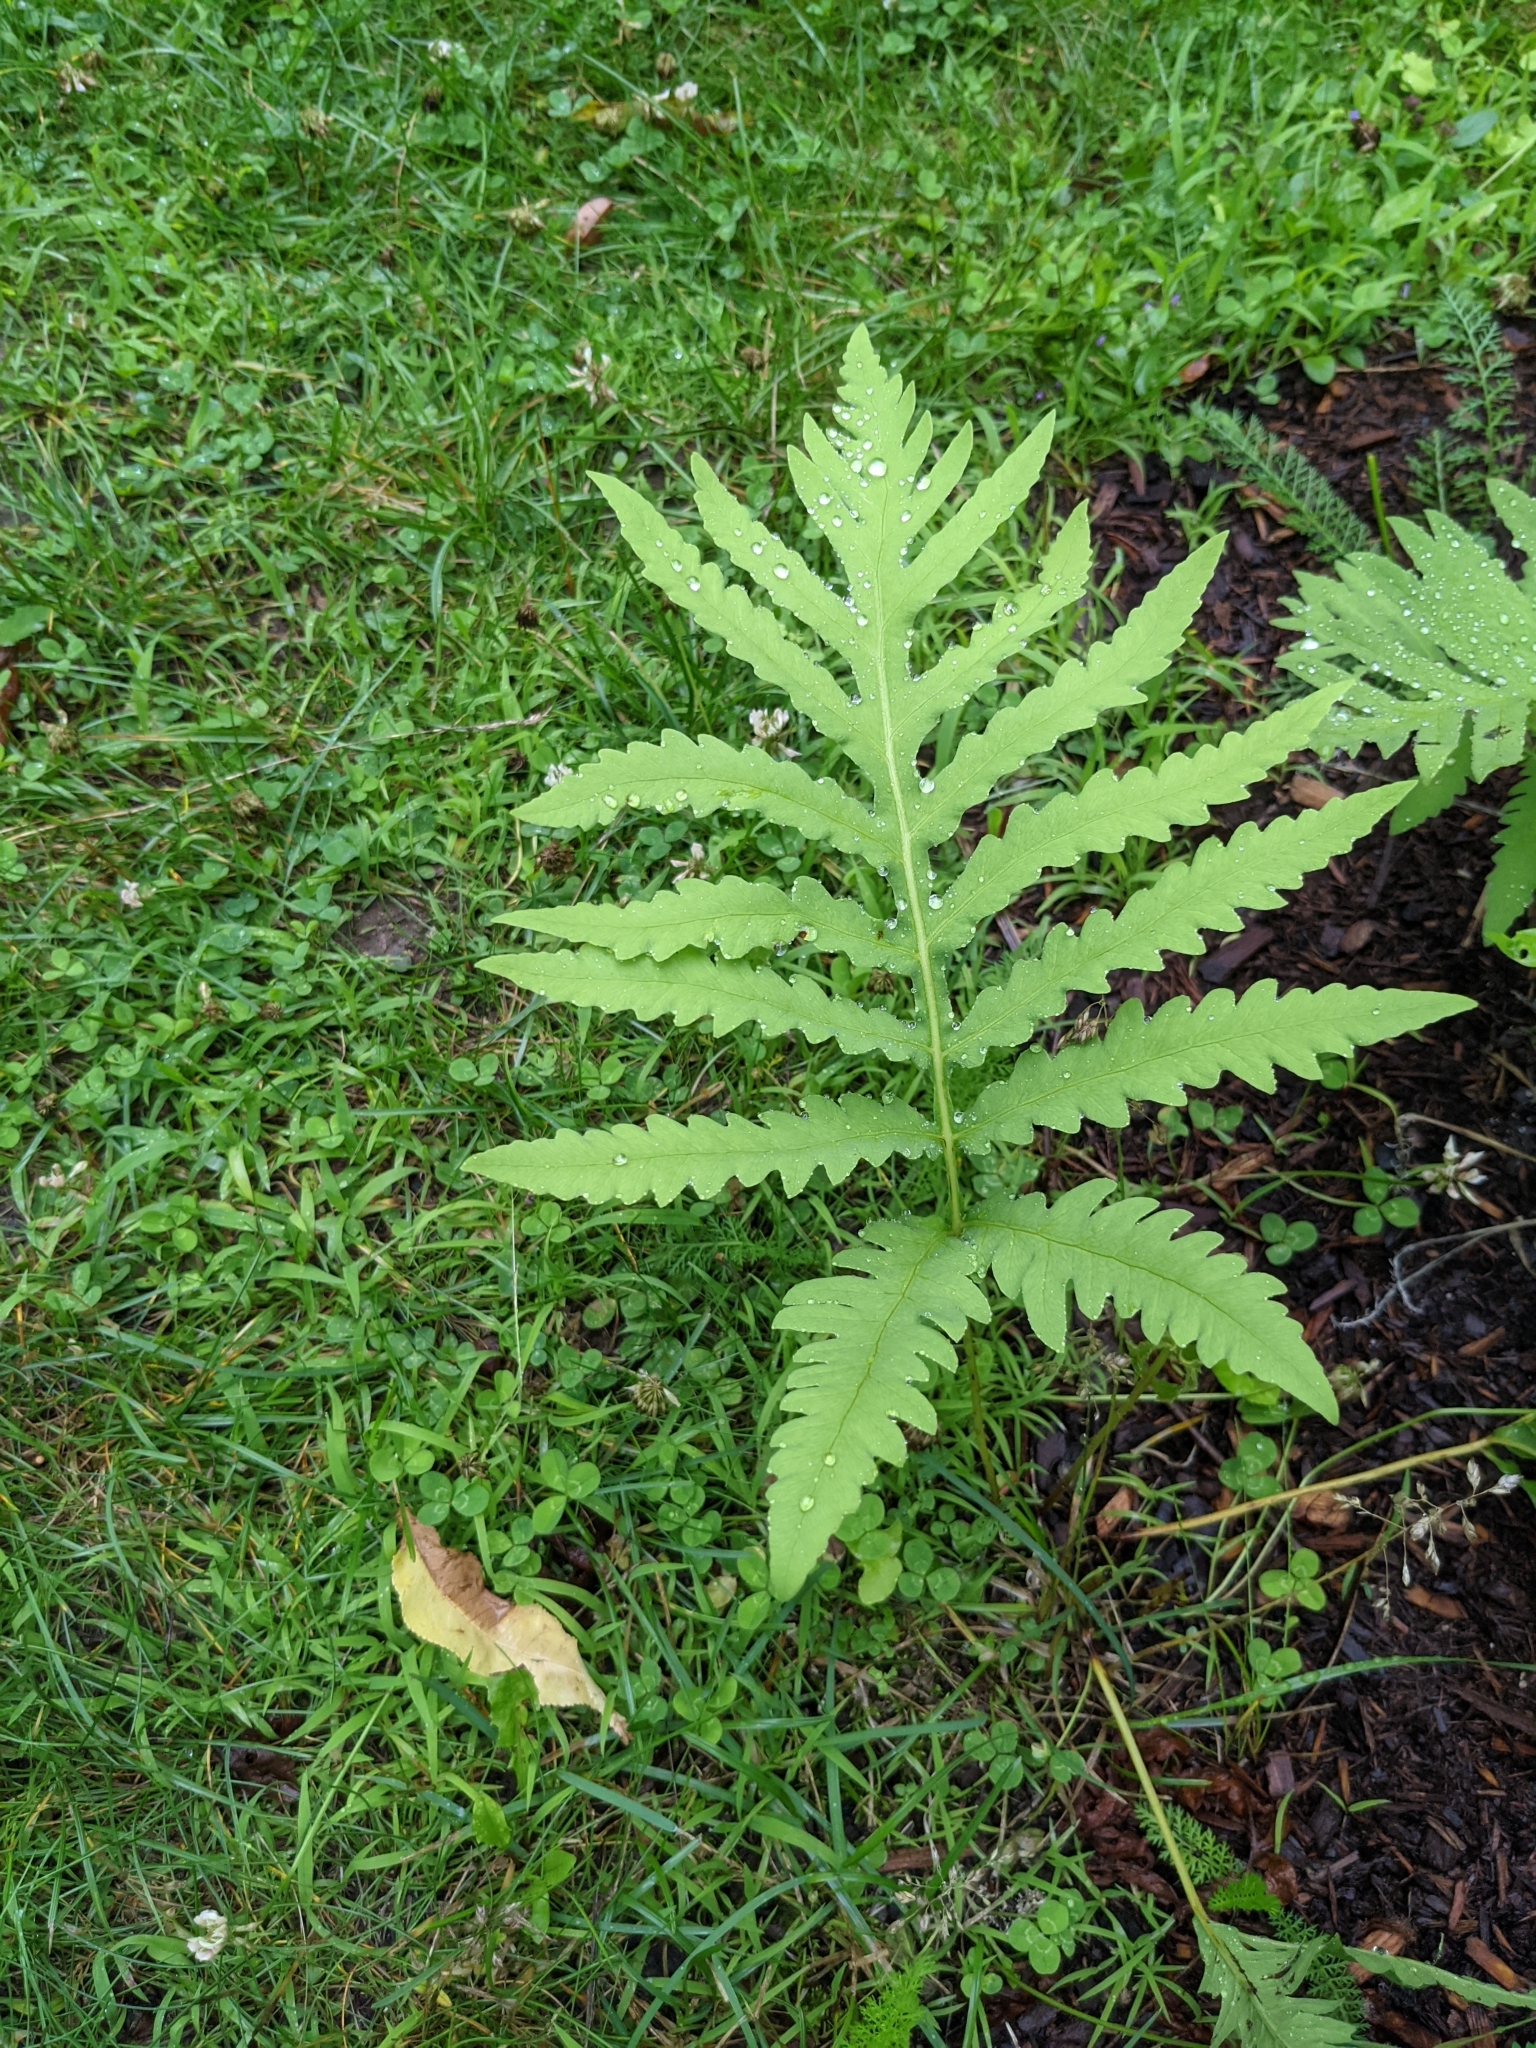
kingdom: Plantae
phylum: Tracheophyta
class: Polypodiopsida
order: Polypodiales
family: Onocleaceae
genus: Onoclea
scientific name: Onoclea sensibilis
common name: Sensitive fern
